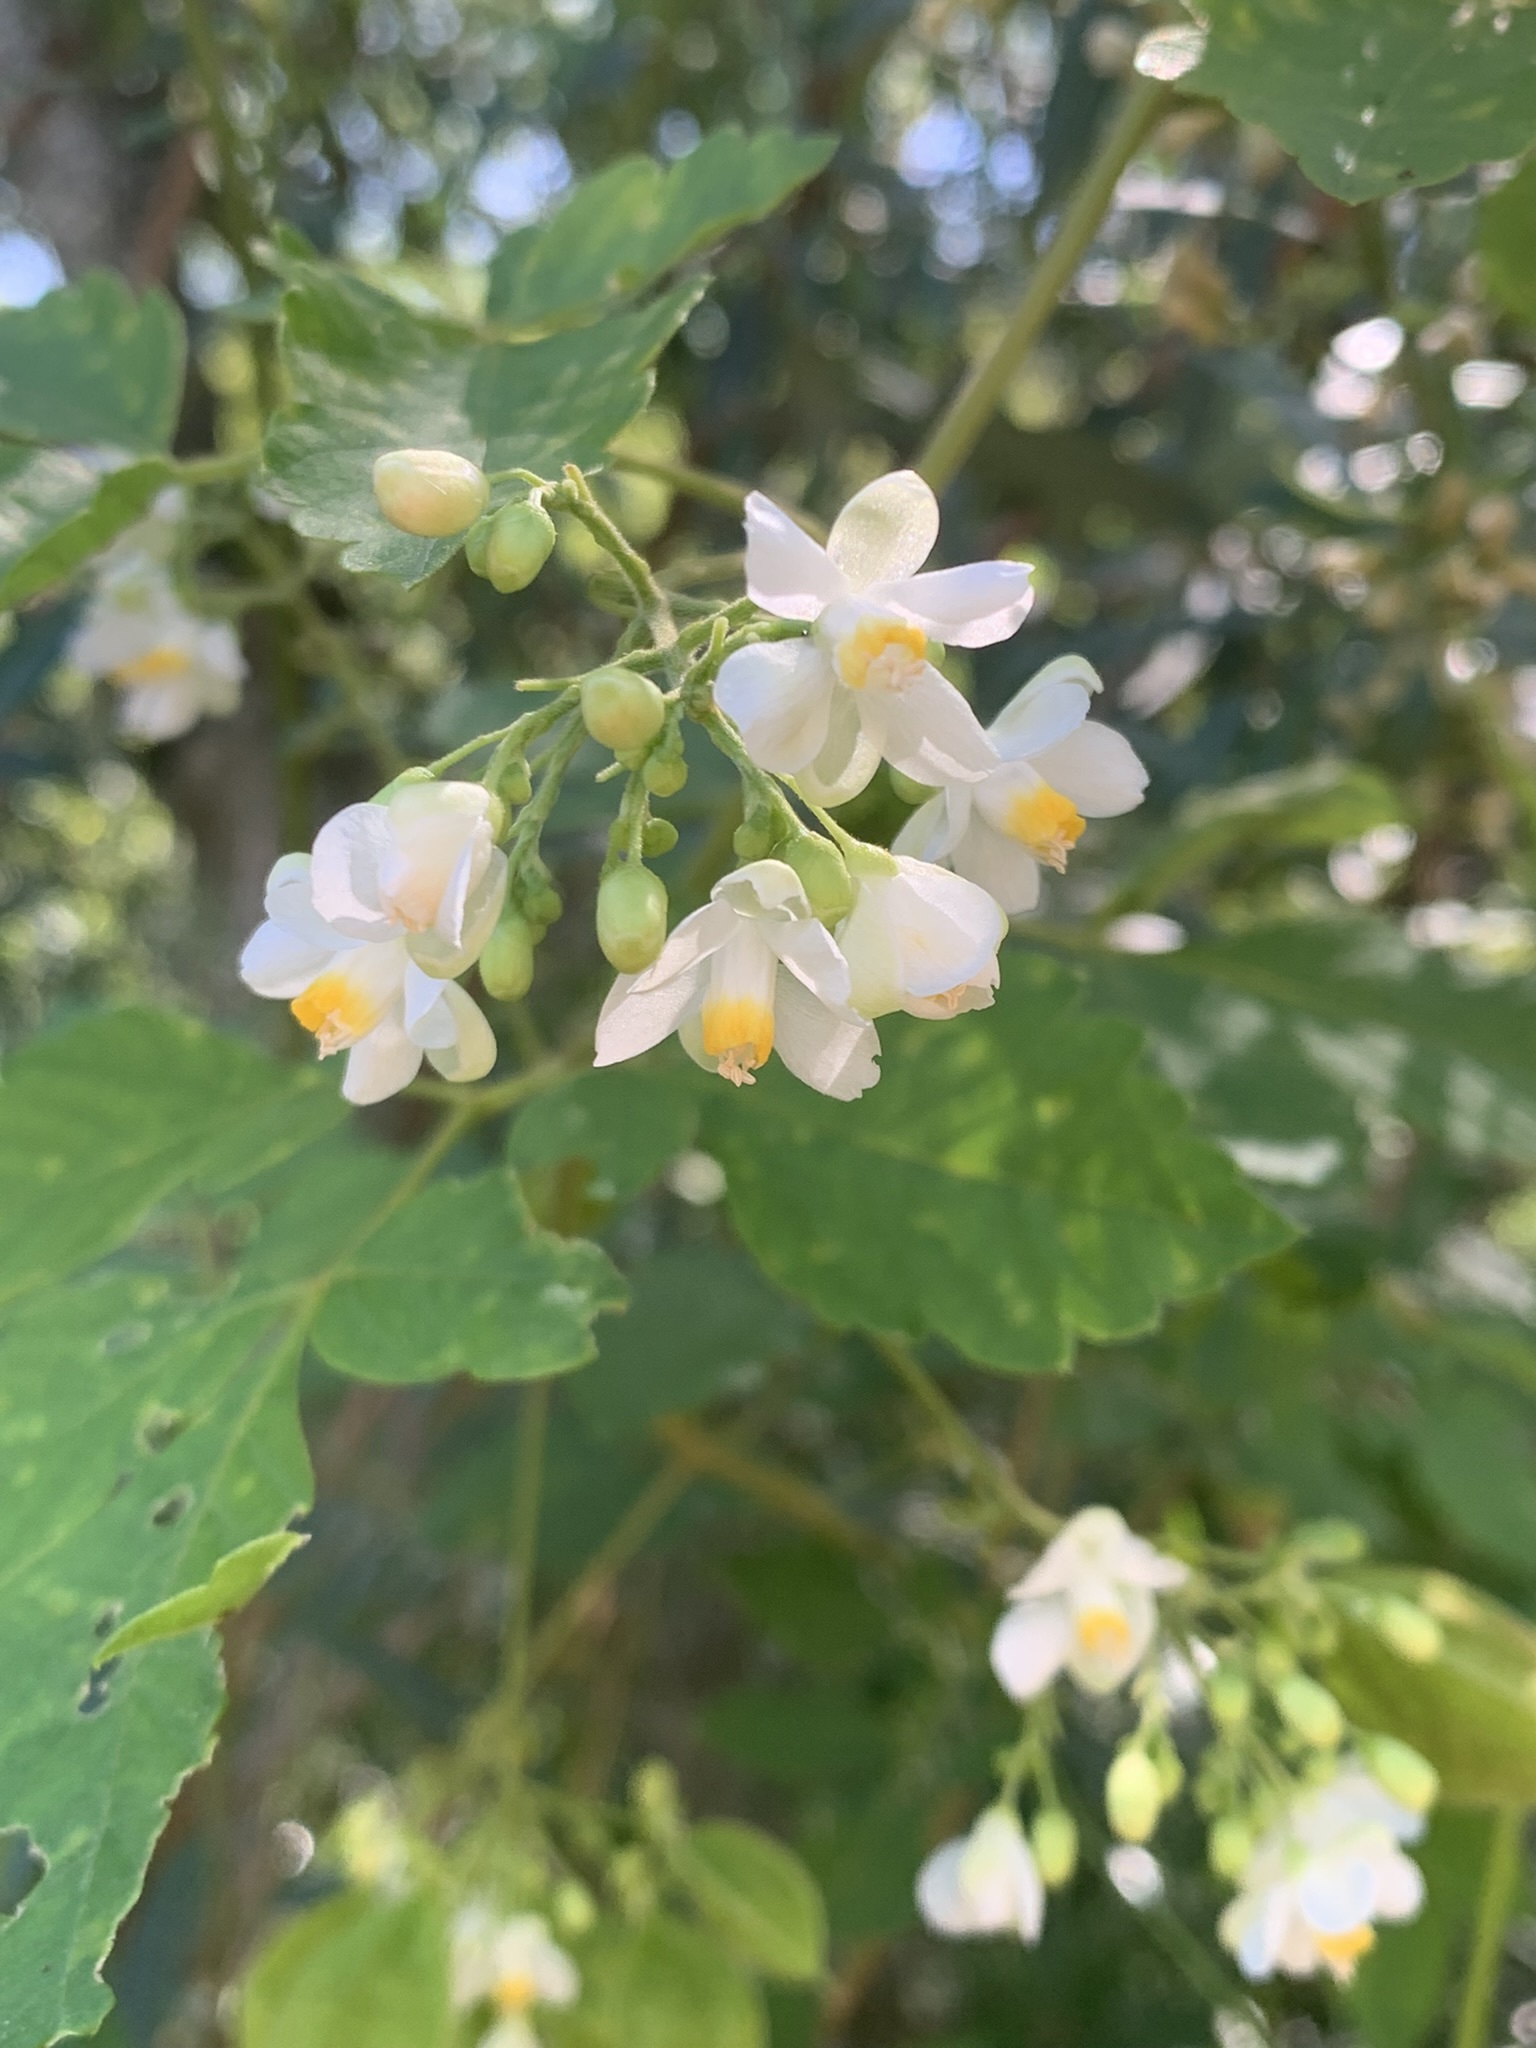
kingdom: Plantae
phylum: Tracheophyta
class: Magnoliopsida
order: Sapindales
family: Sapindaceae
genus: Cardiospermum
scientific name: Cardiospermum grandiflorum
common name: Balloon vine
